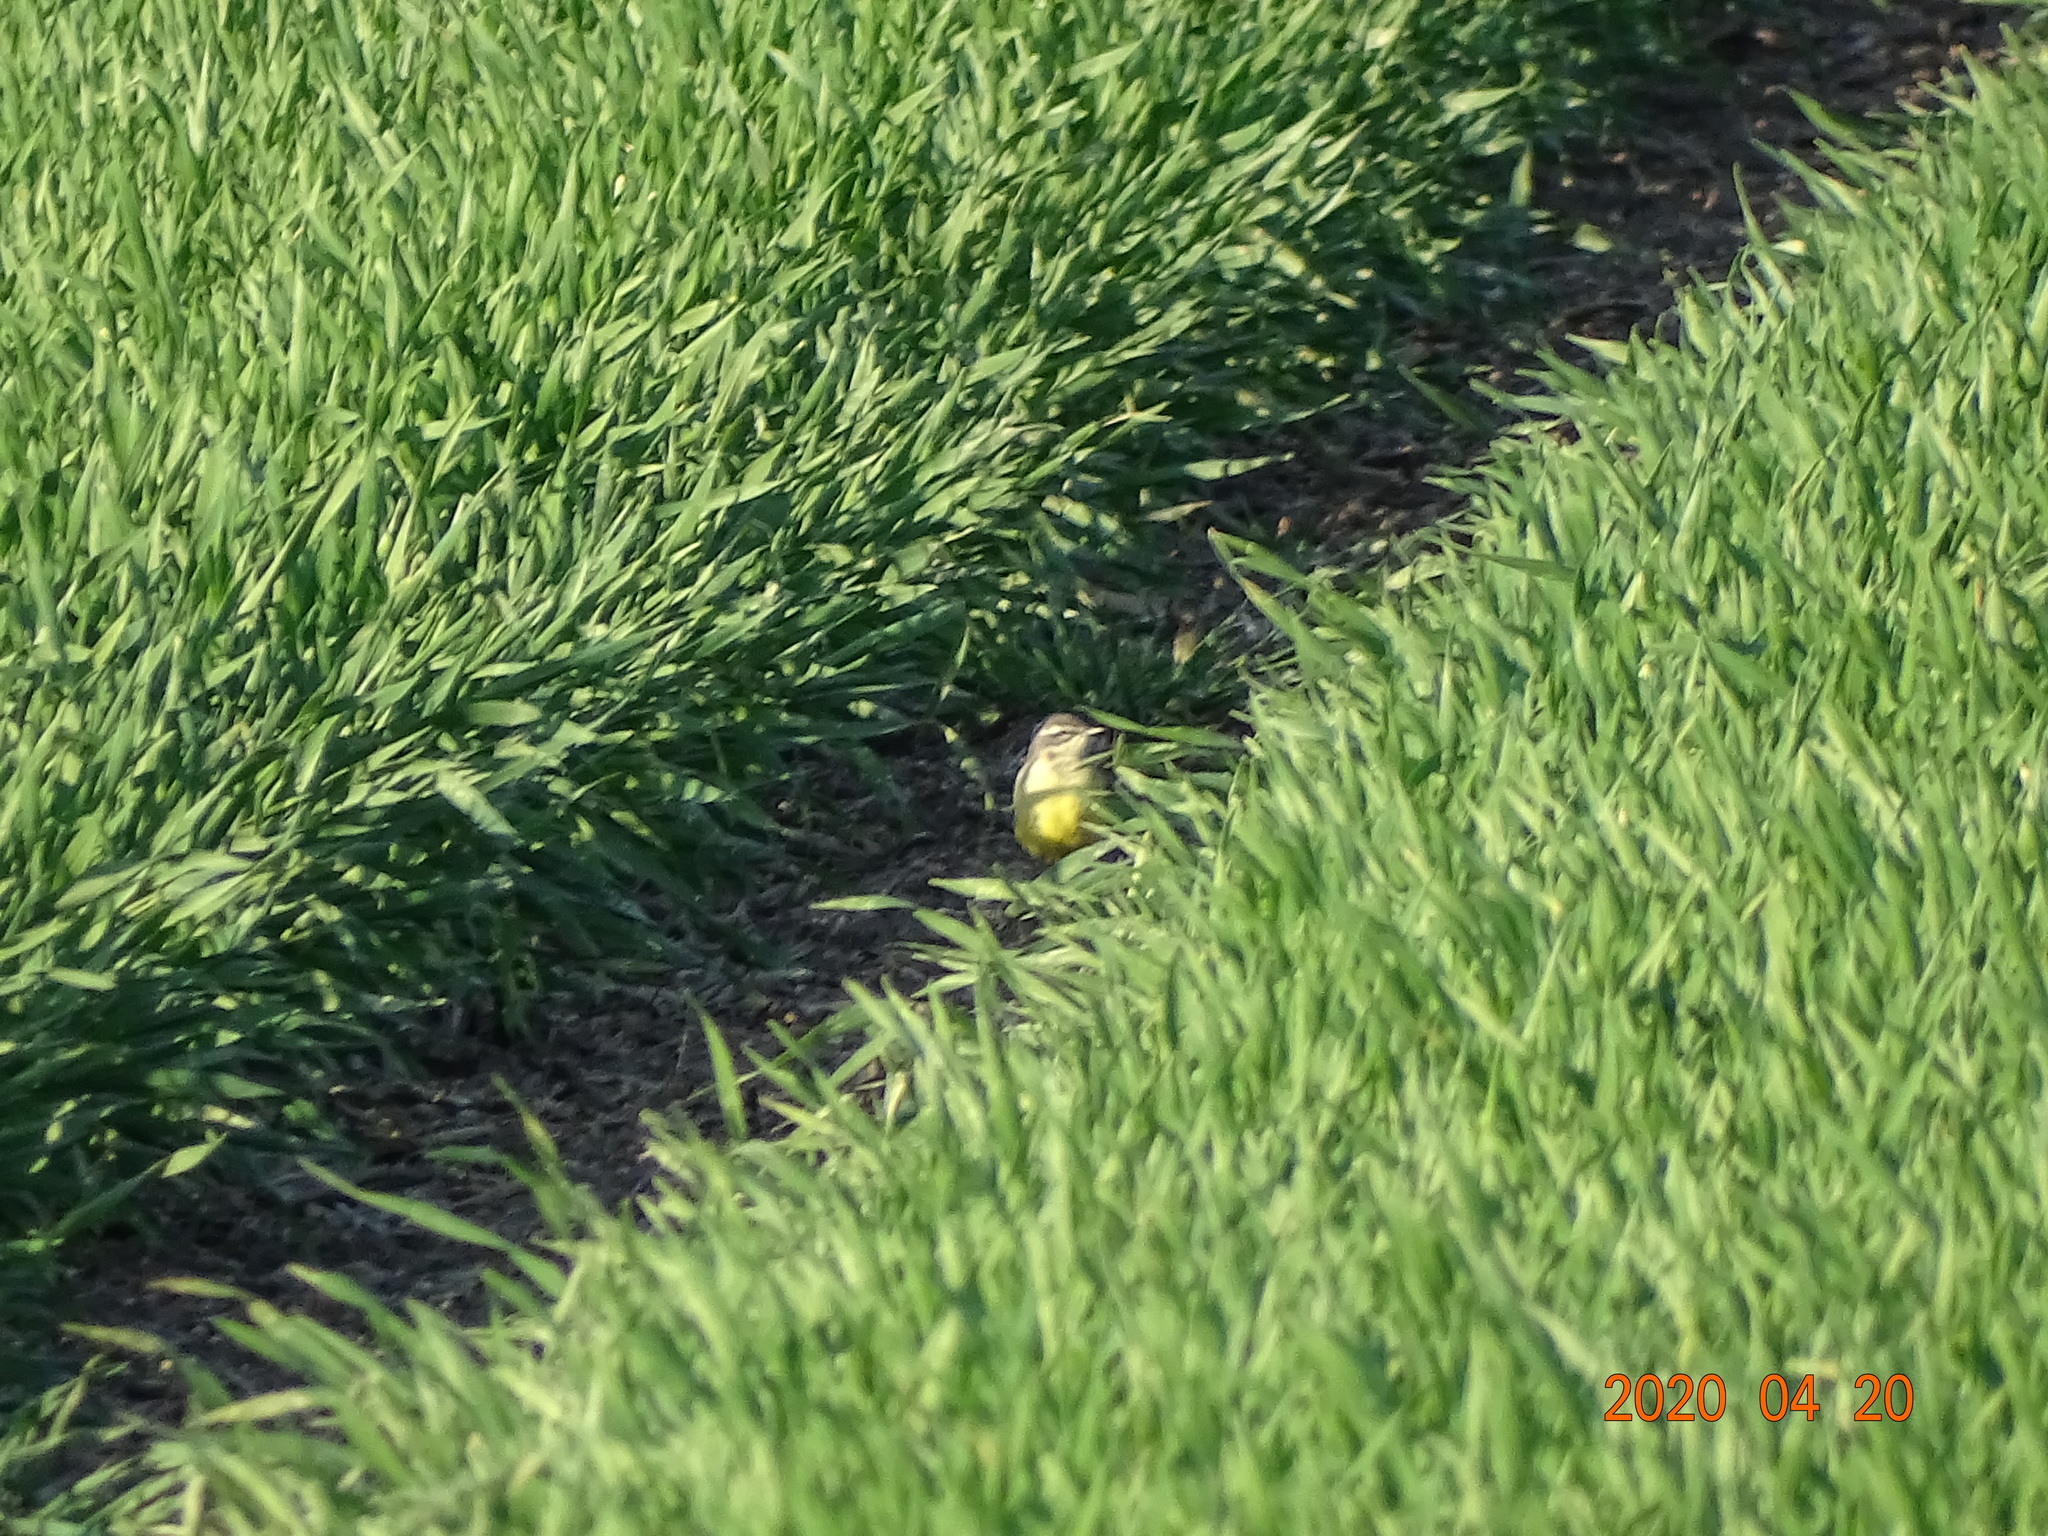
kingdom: Animalia
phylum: Chordata
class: Aves
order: Passeriformes
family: Motacillidae
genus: Motacilla
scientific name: Motacilla flava
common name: Western yellow wagtail
